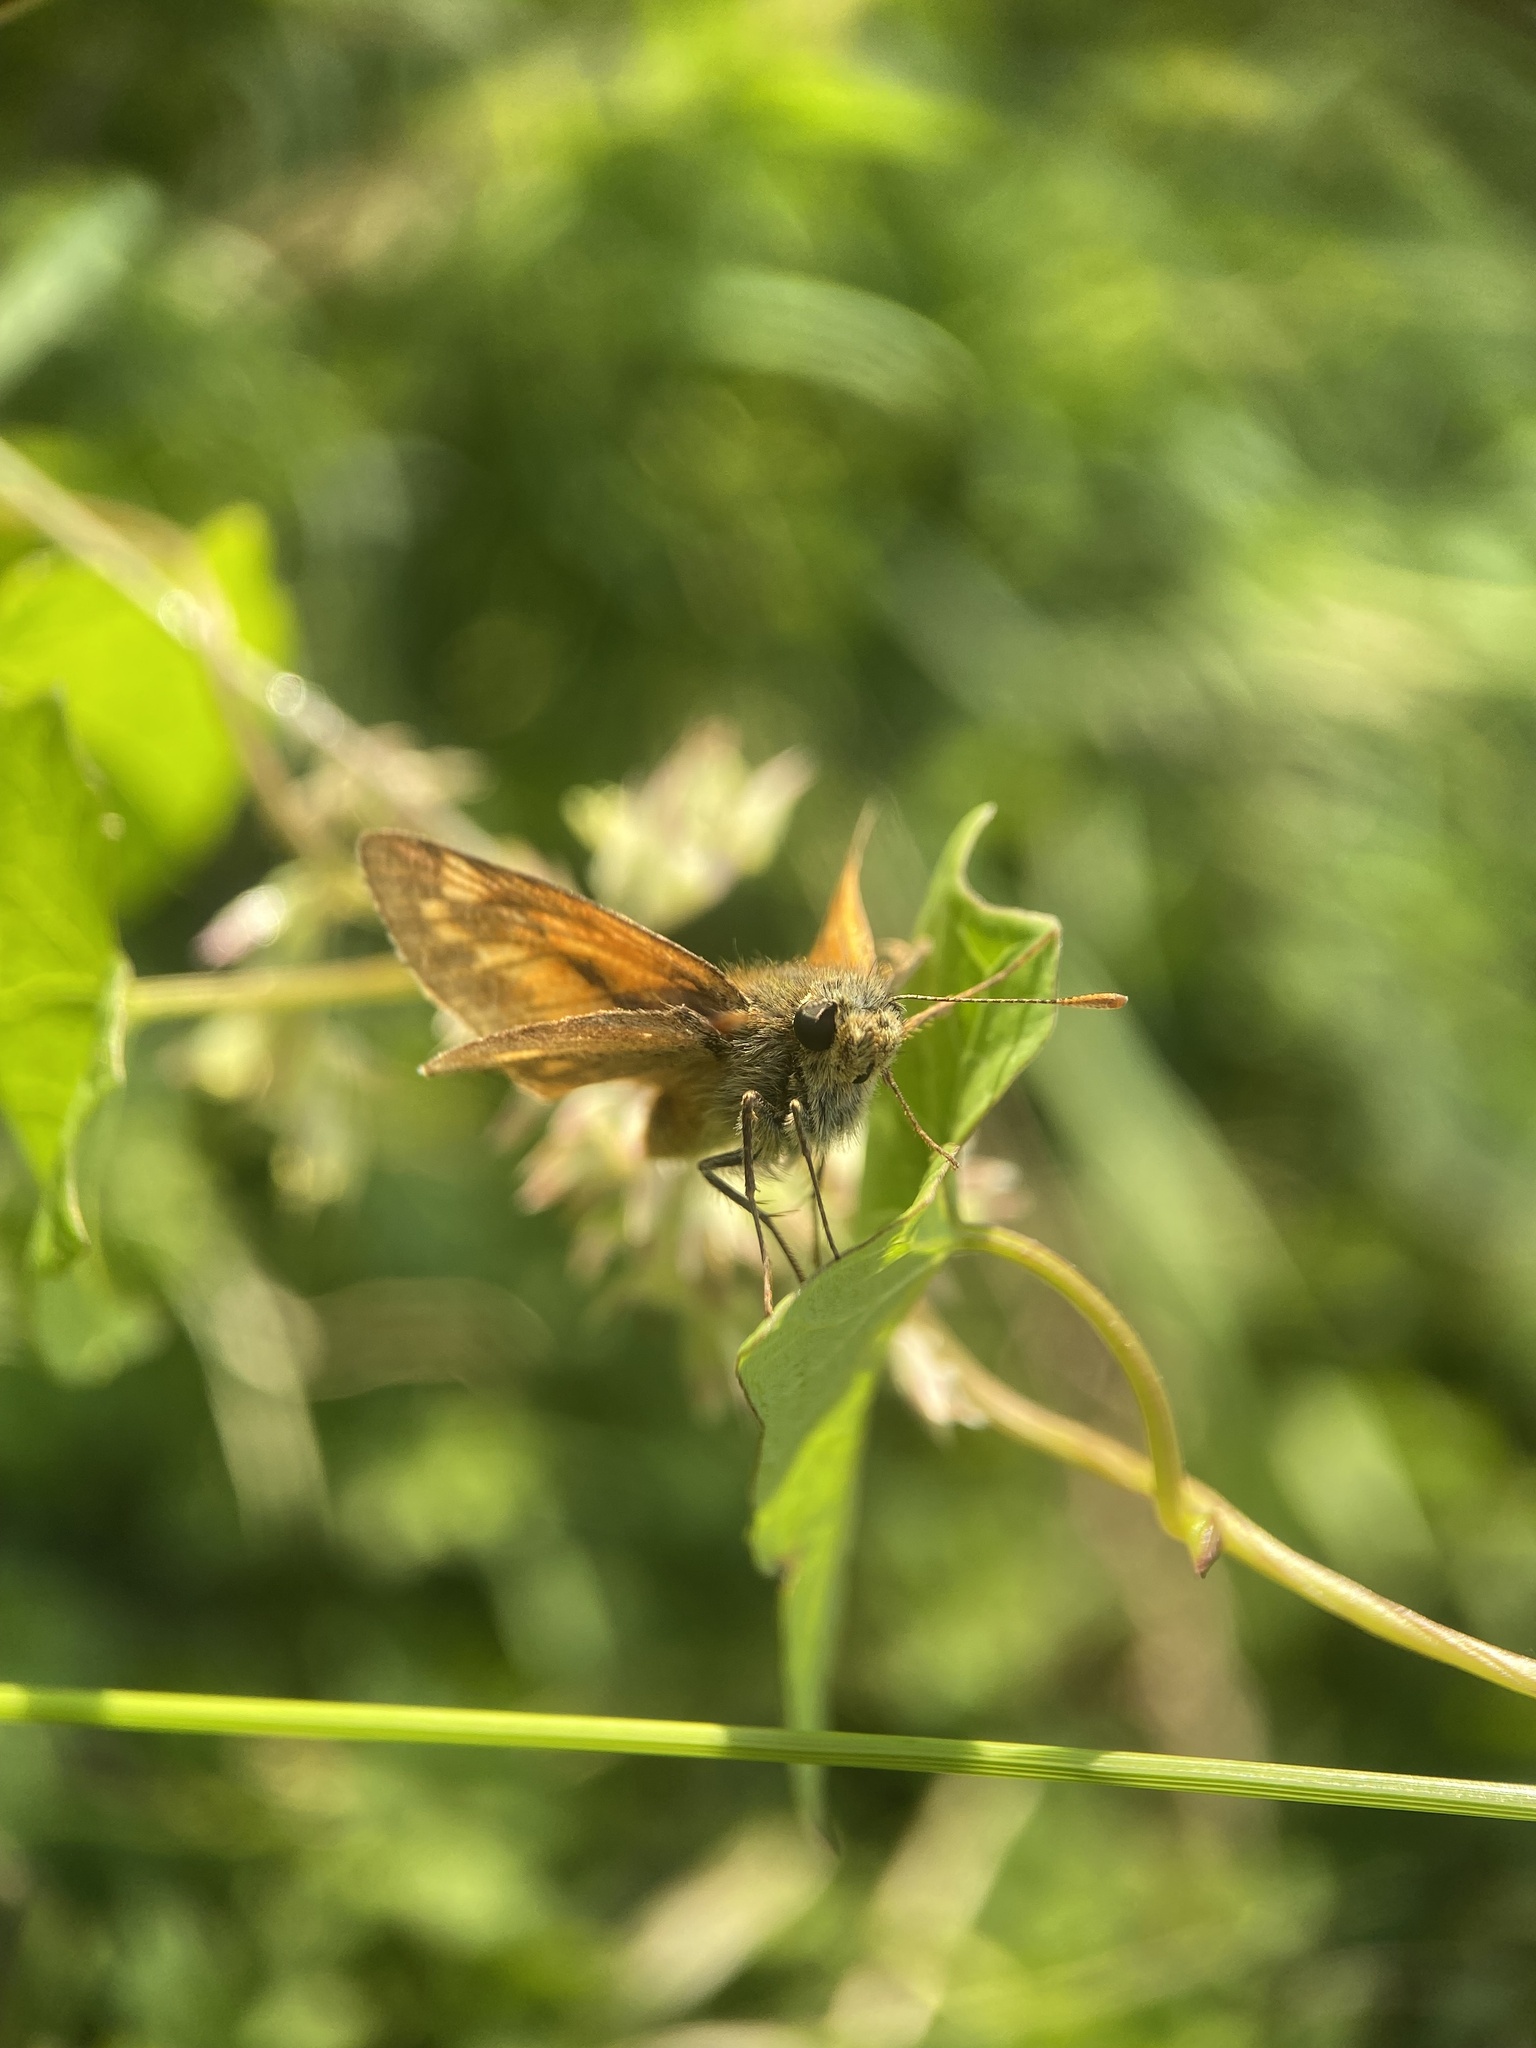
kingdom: Animalia
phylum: Arthropoda
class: Insecta
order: Lepidoptera
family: Hesperiidae
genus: Ochlodes
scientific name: Ochlodes venata
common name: Large skipper
